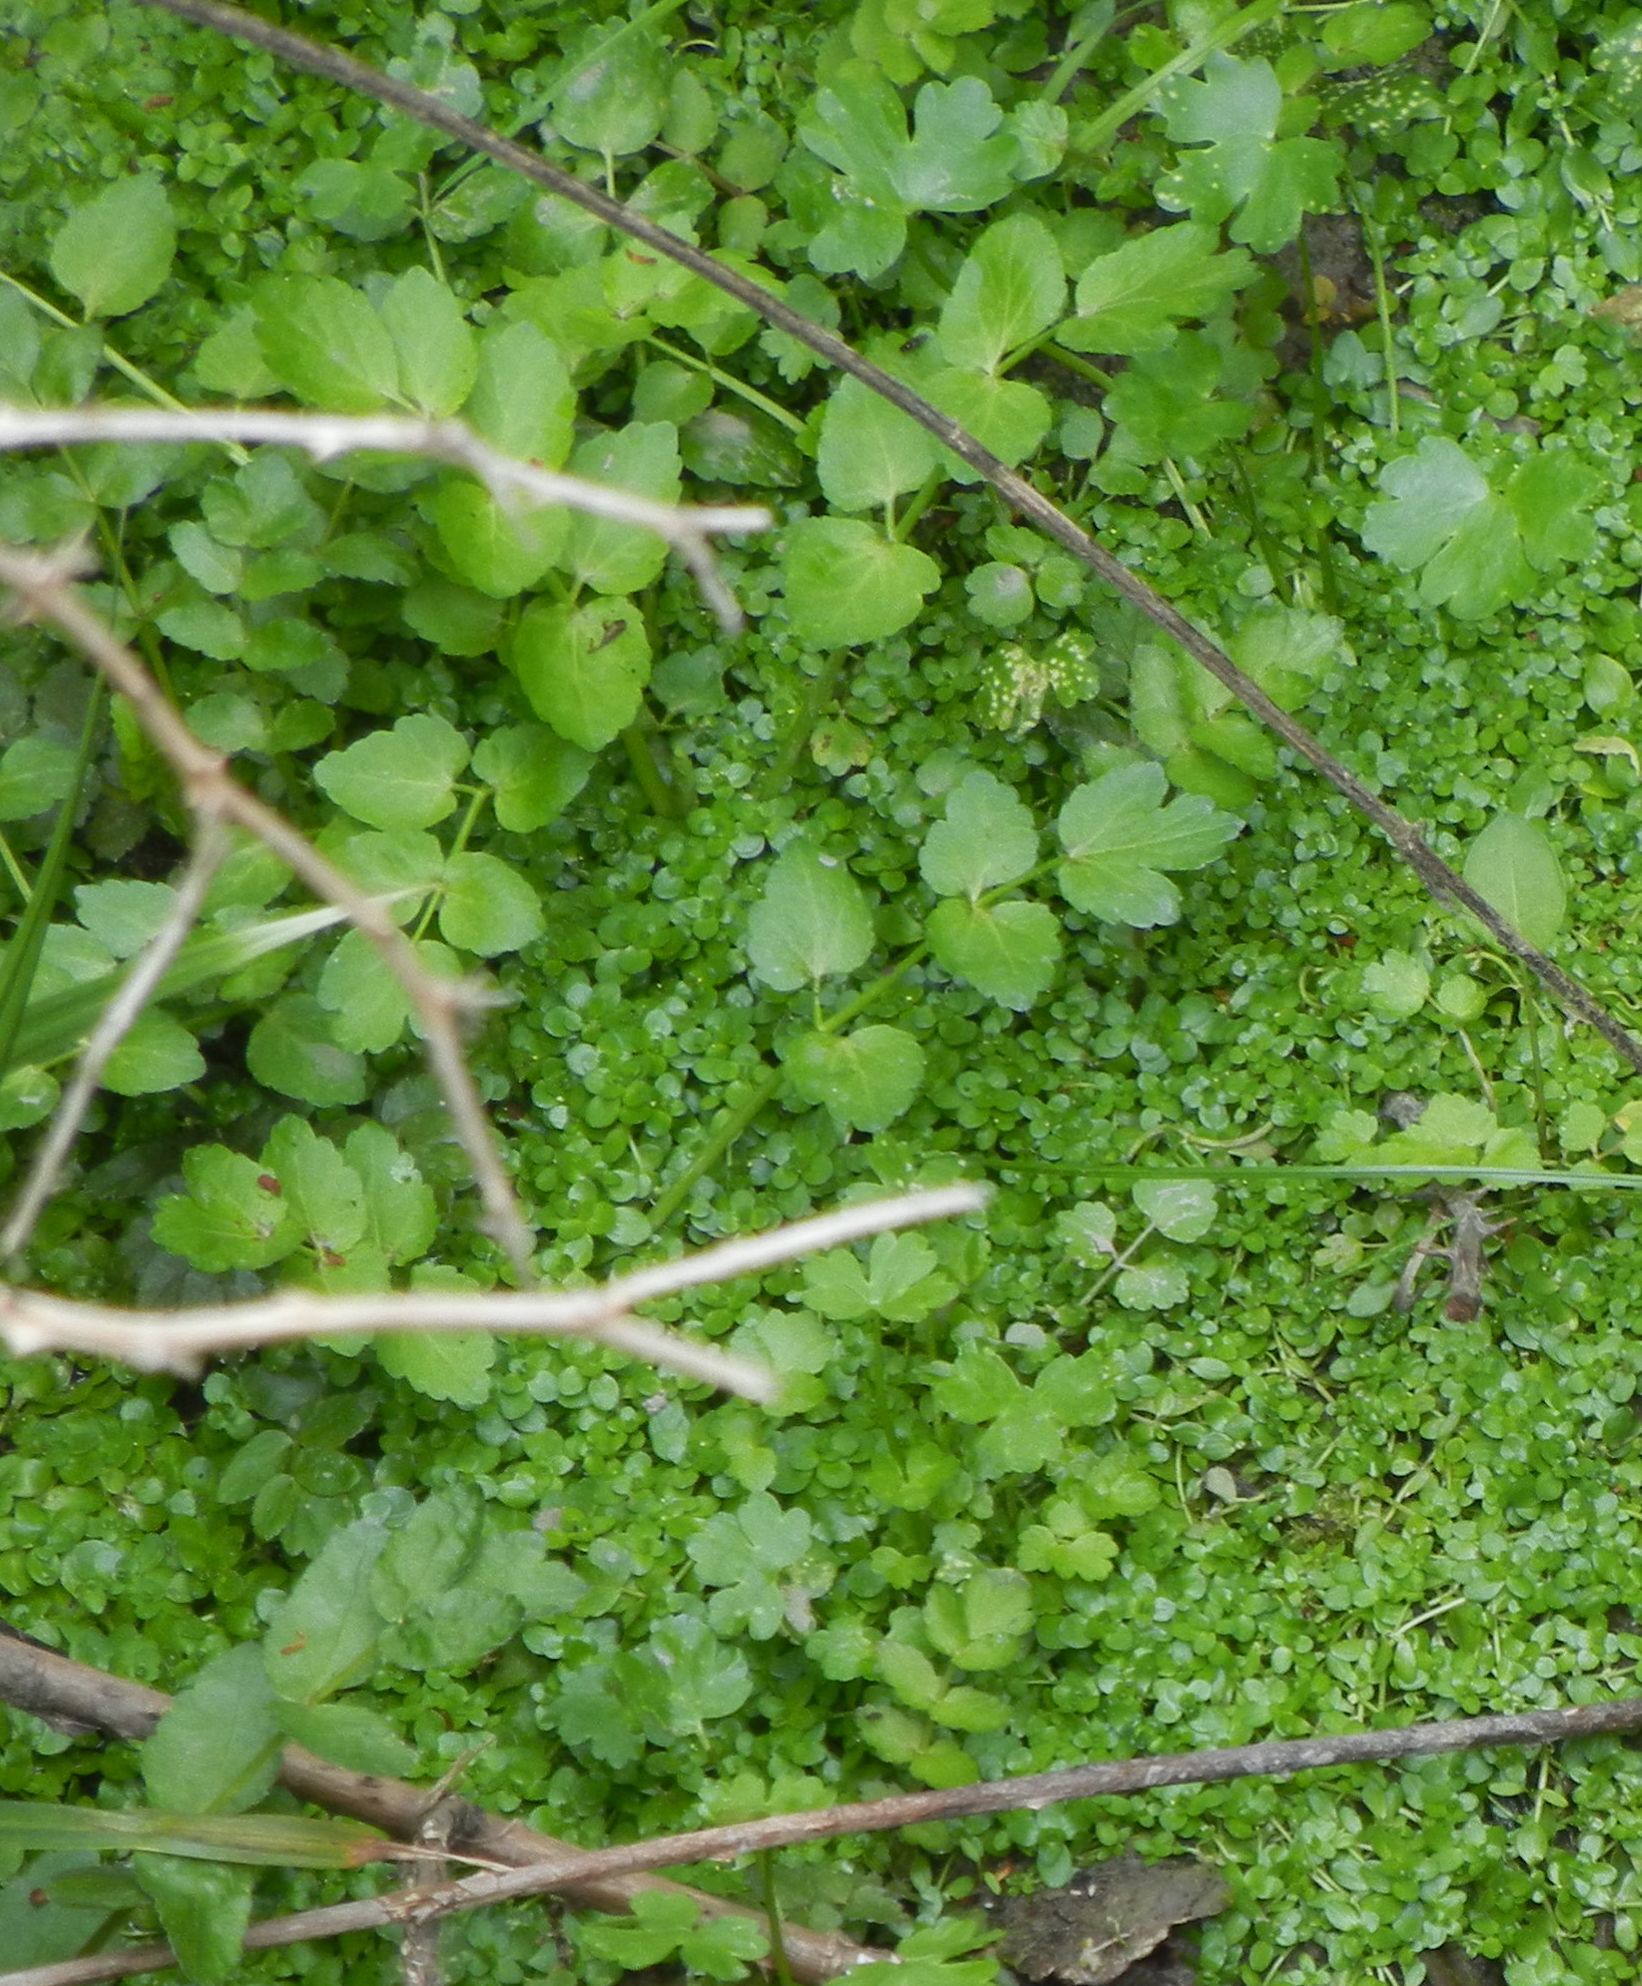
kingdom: Plantae
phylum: Tracheophyta
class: Magnoliopsida
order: Apiales
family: Apiaceae
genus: Helosciadium
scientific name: Helosciadium nodiflorum
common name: Fool's-watercress
